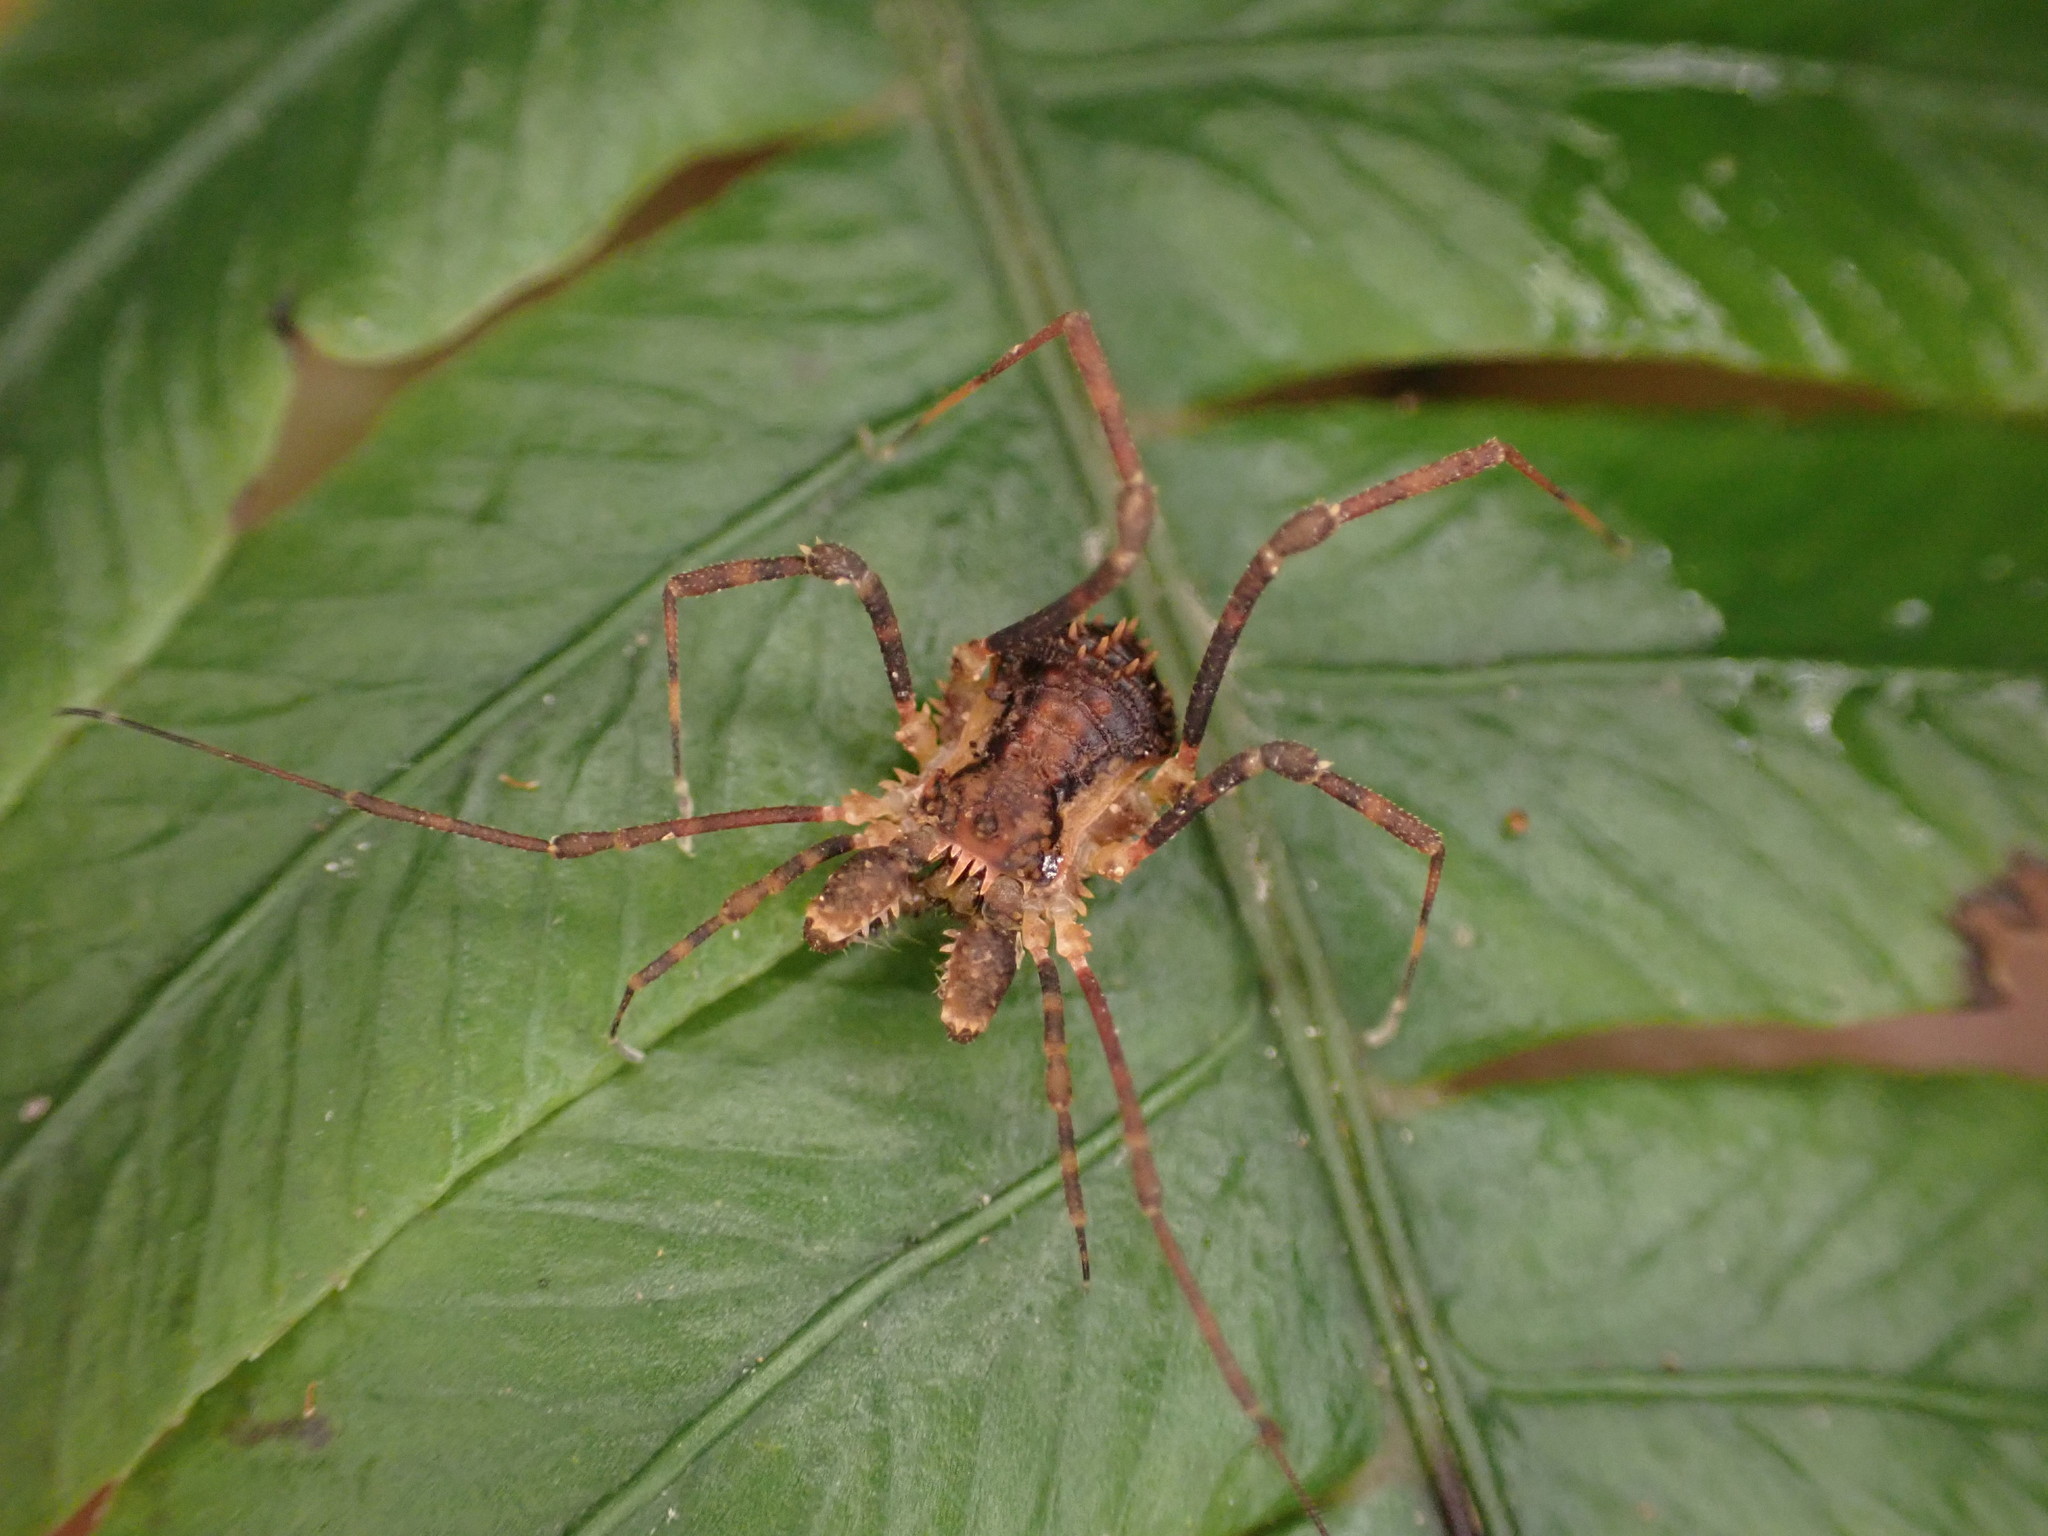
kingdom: Animalia
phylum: Arthropoda
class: Arachnida
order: Opiliones
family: Triaenonychidae
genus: Algidia
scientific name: Algidia nigriflava
